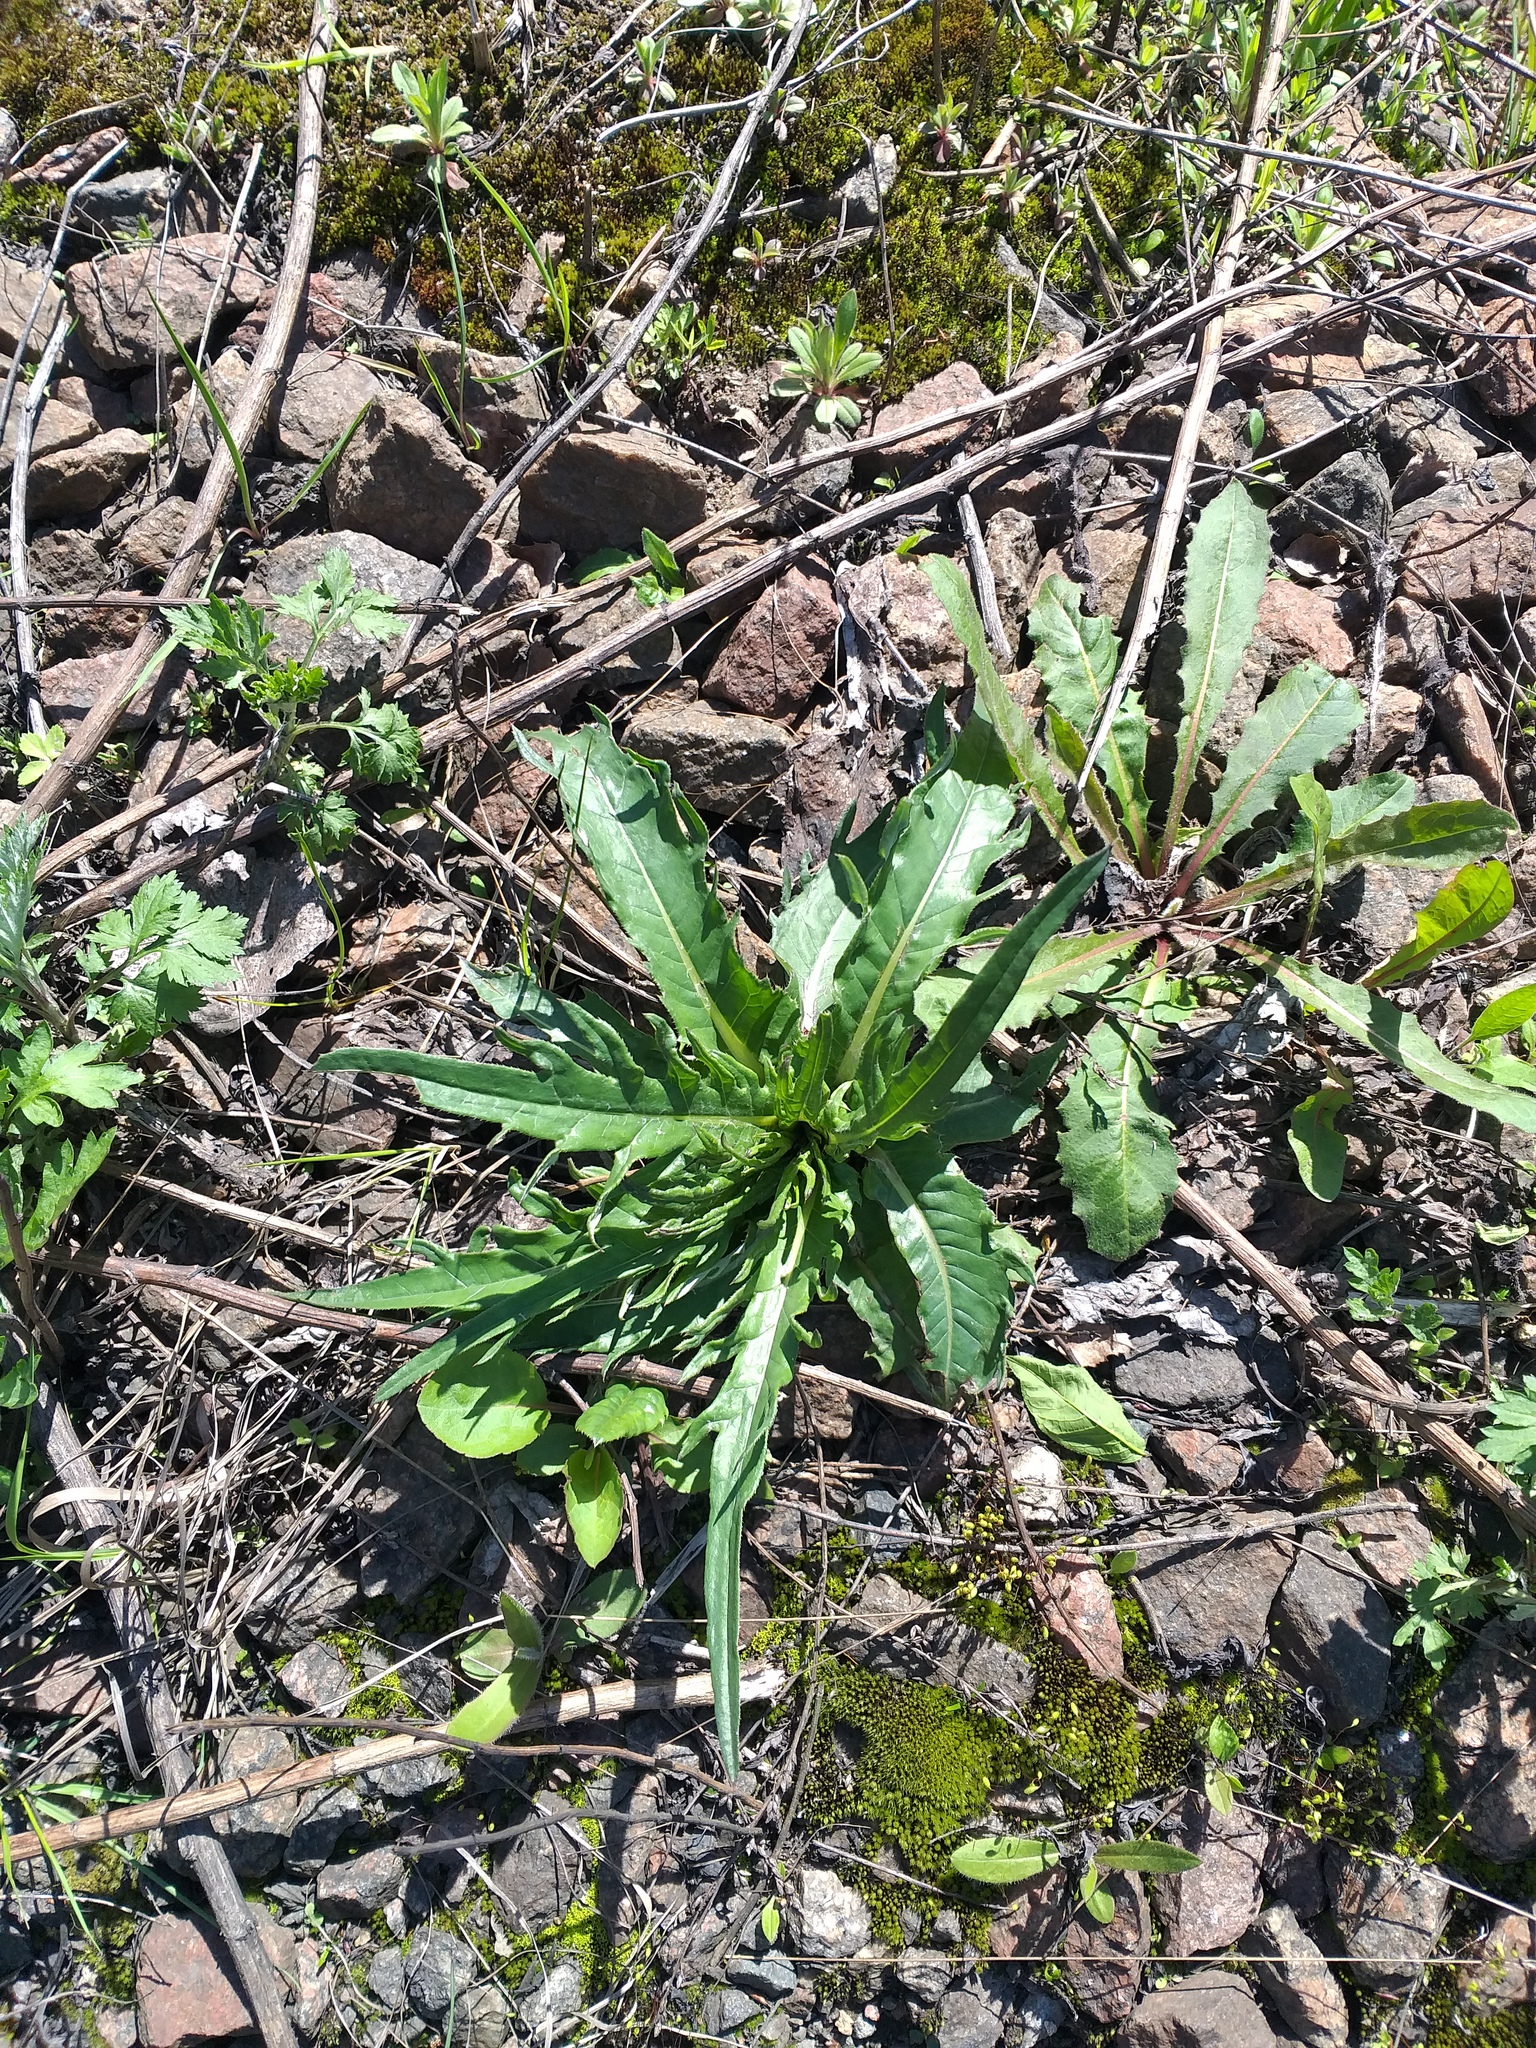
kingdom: Plantae
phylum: Tracheophyta
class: Magnoliopsida
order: Asterales
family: Asteraceae
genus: Cirsium
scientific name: Cirsium heterophyllum
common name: Melancholy thistle
